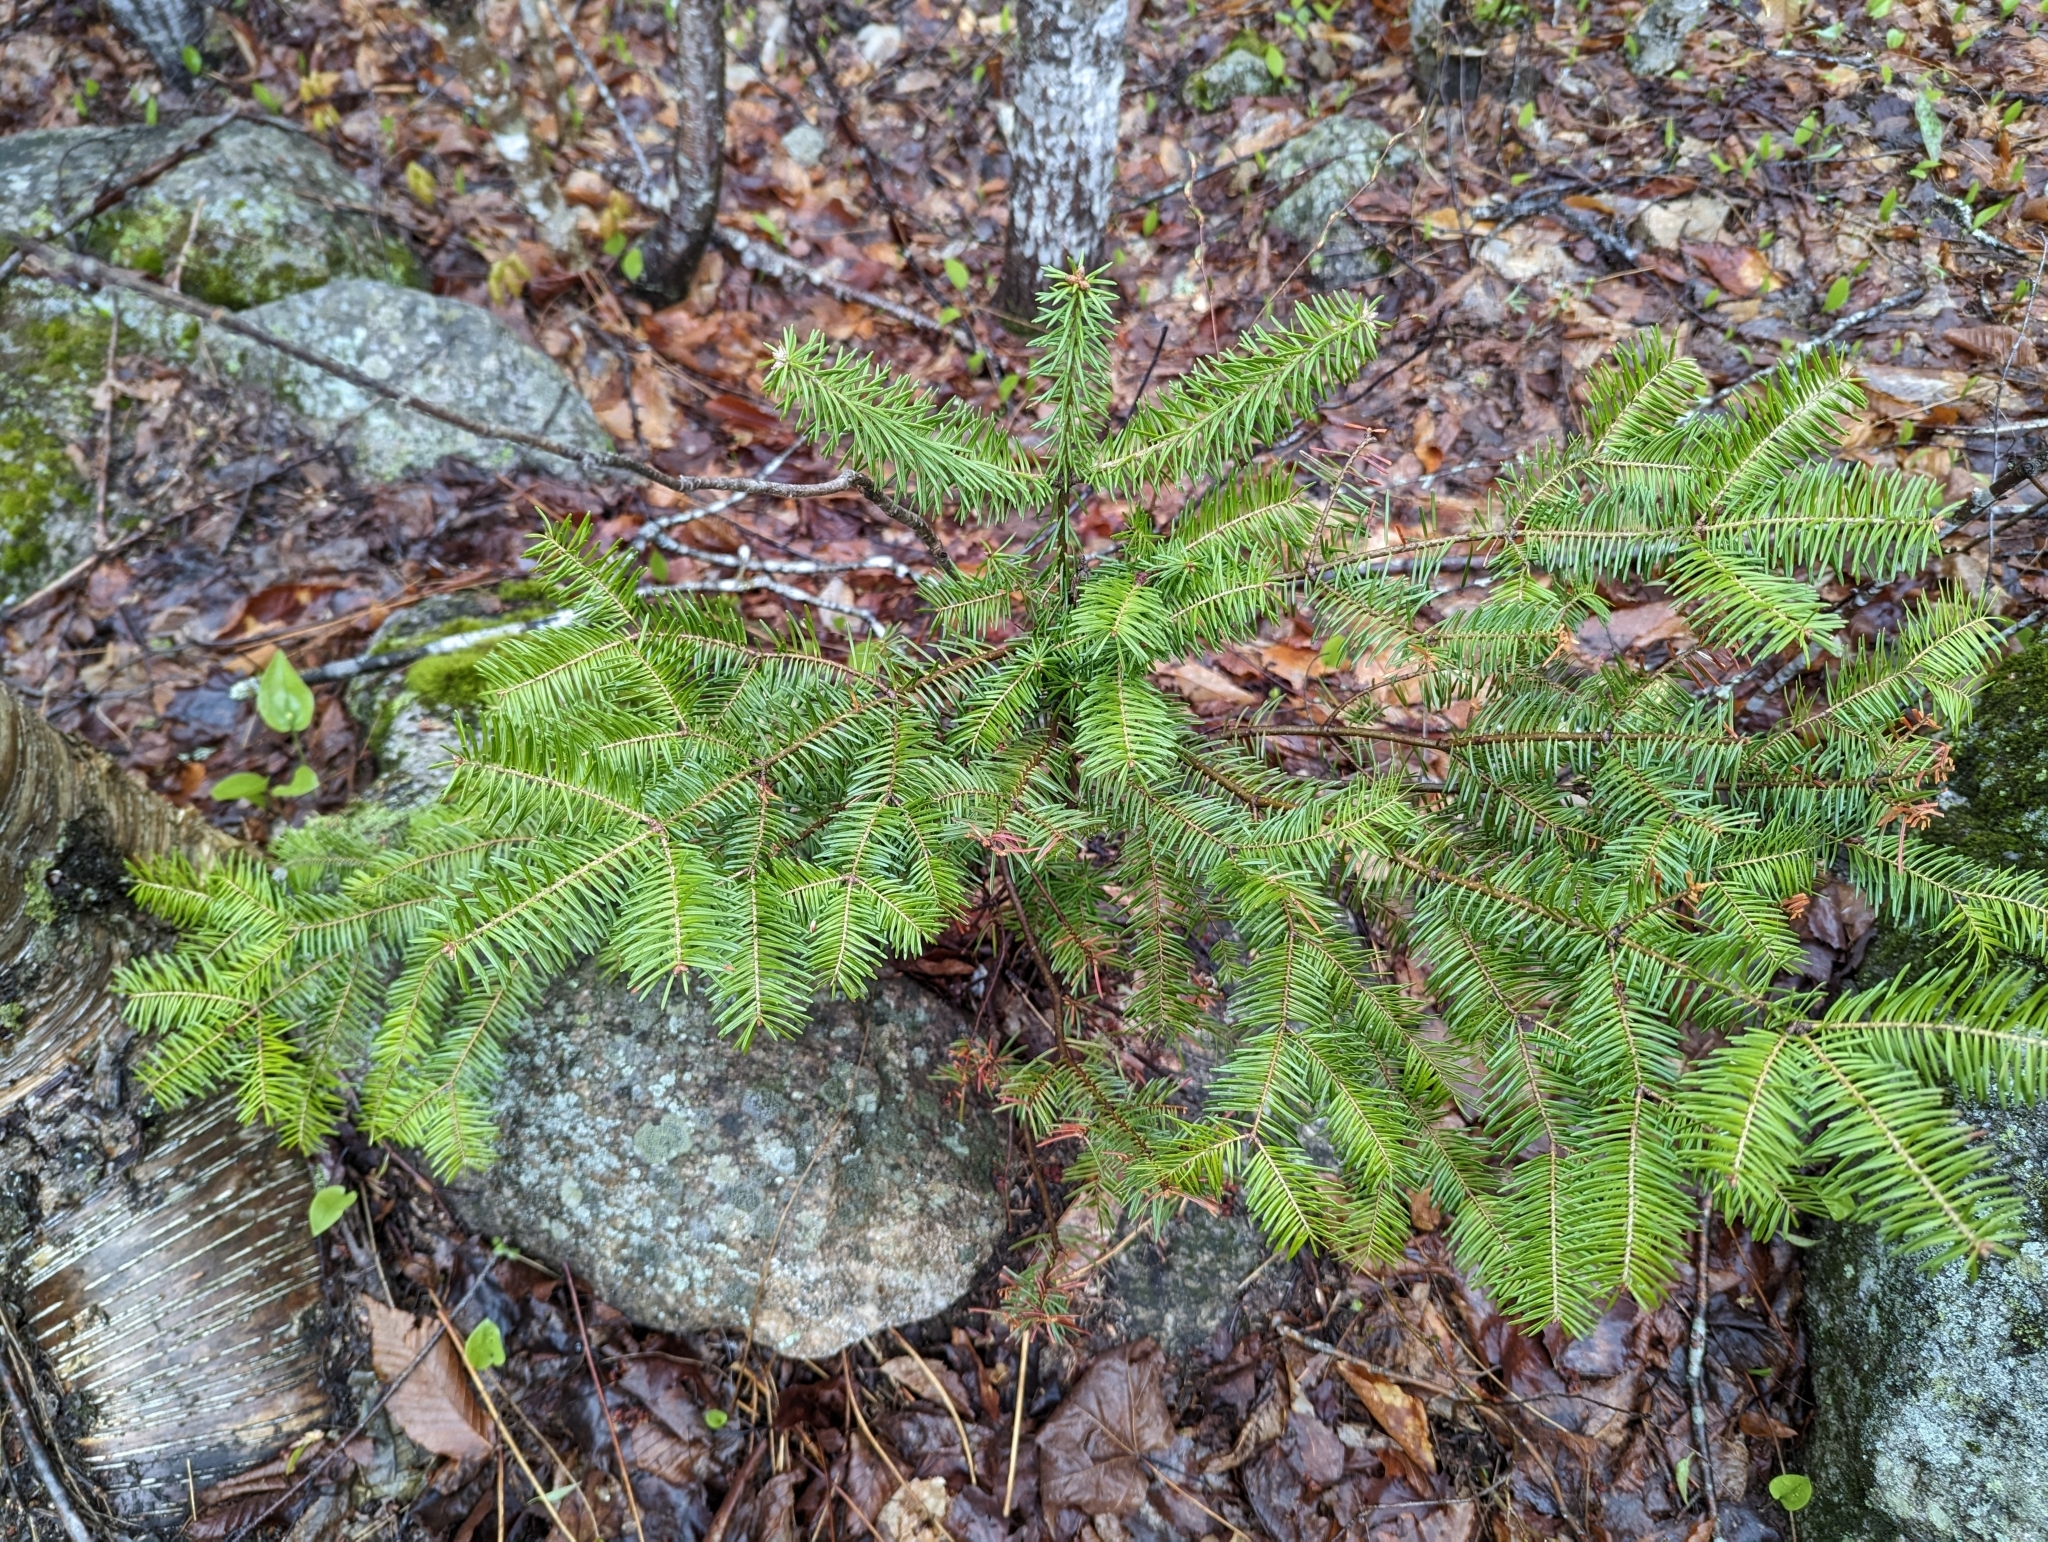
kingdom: Plantae
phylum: Tracheophyta
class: Pinopsida
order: Pinales
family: Pinaceae
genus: Abies
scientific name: Abies balsamea
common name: Balsam fir
